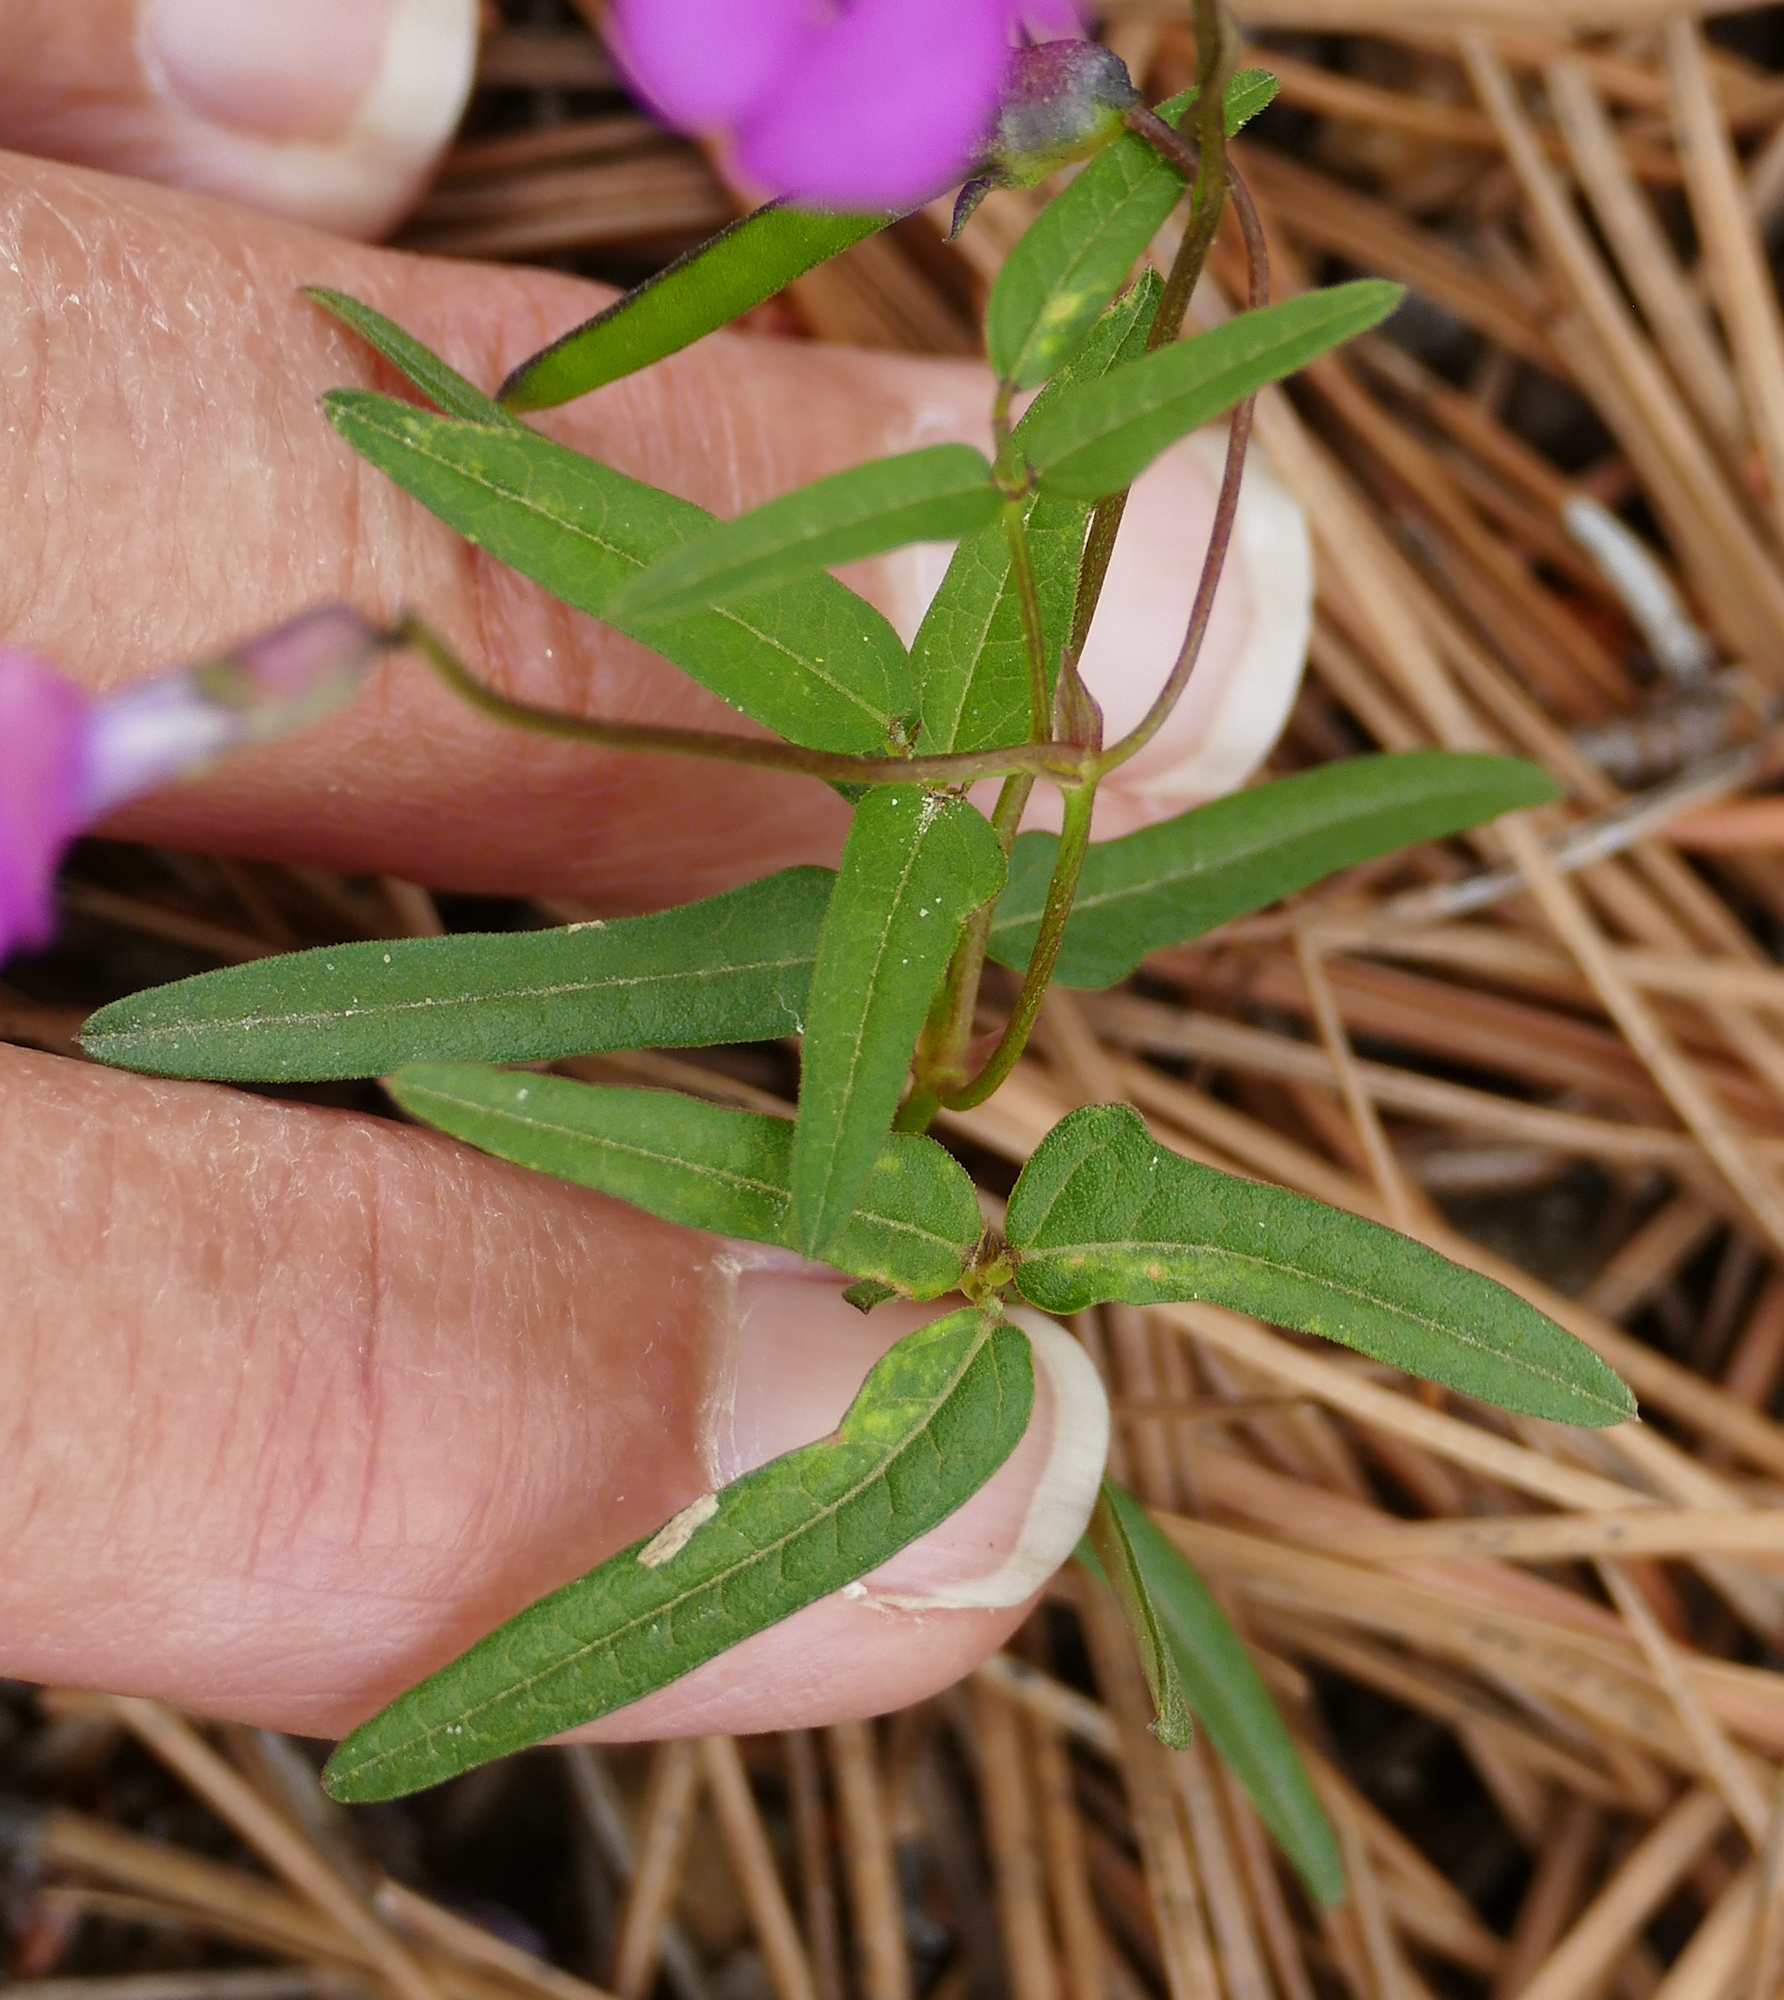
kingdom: Plantae
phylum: Tracheophyta
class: Magnoliopsida
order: Fabales
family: Fabaceae
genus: Phaseolus
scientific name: Phaseolus parvulus
